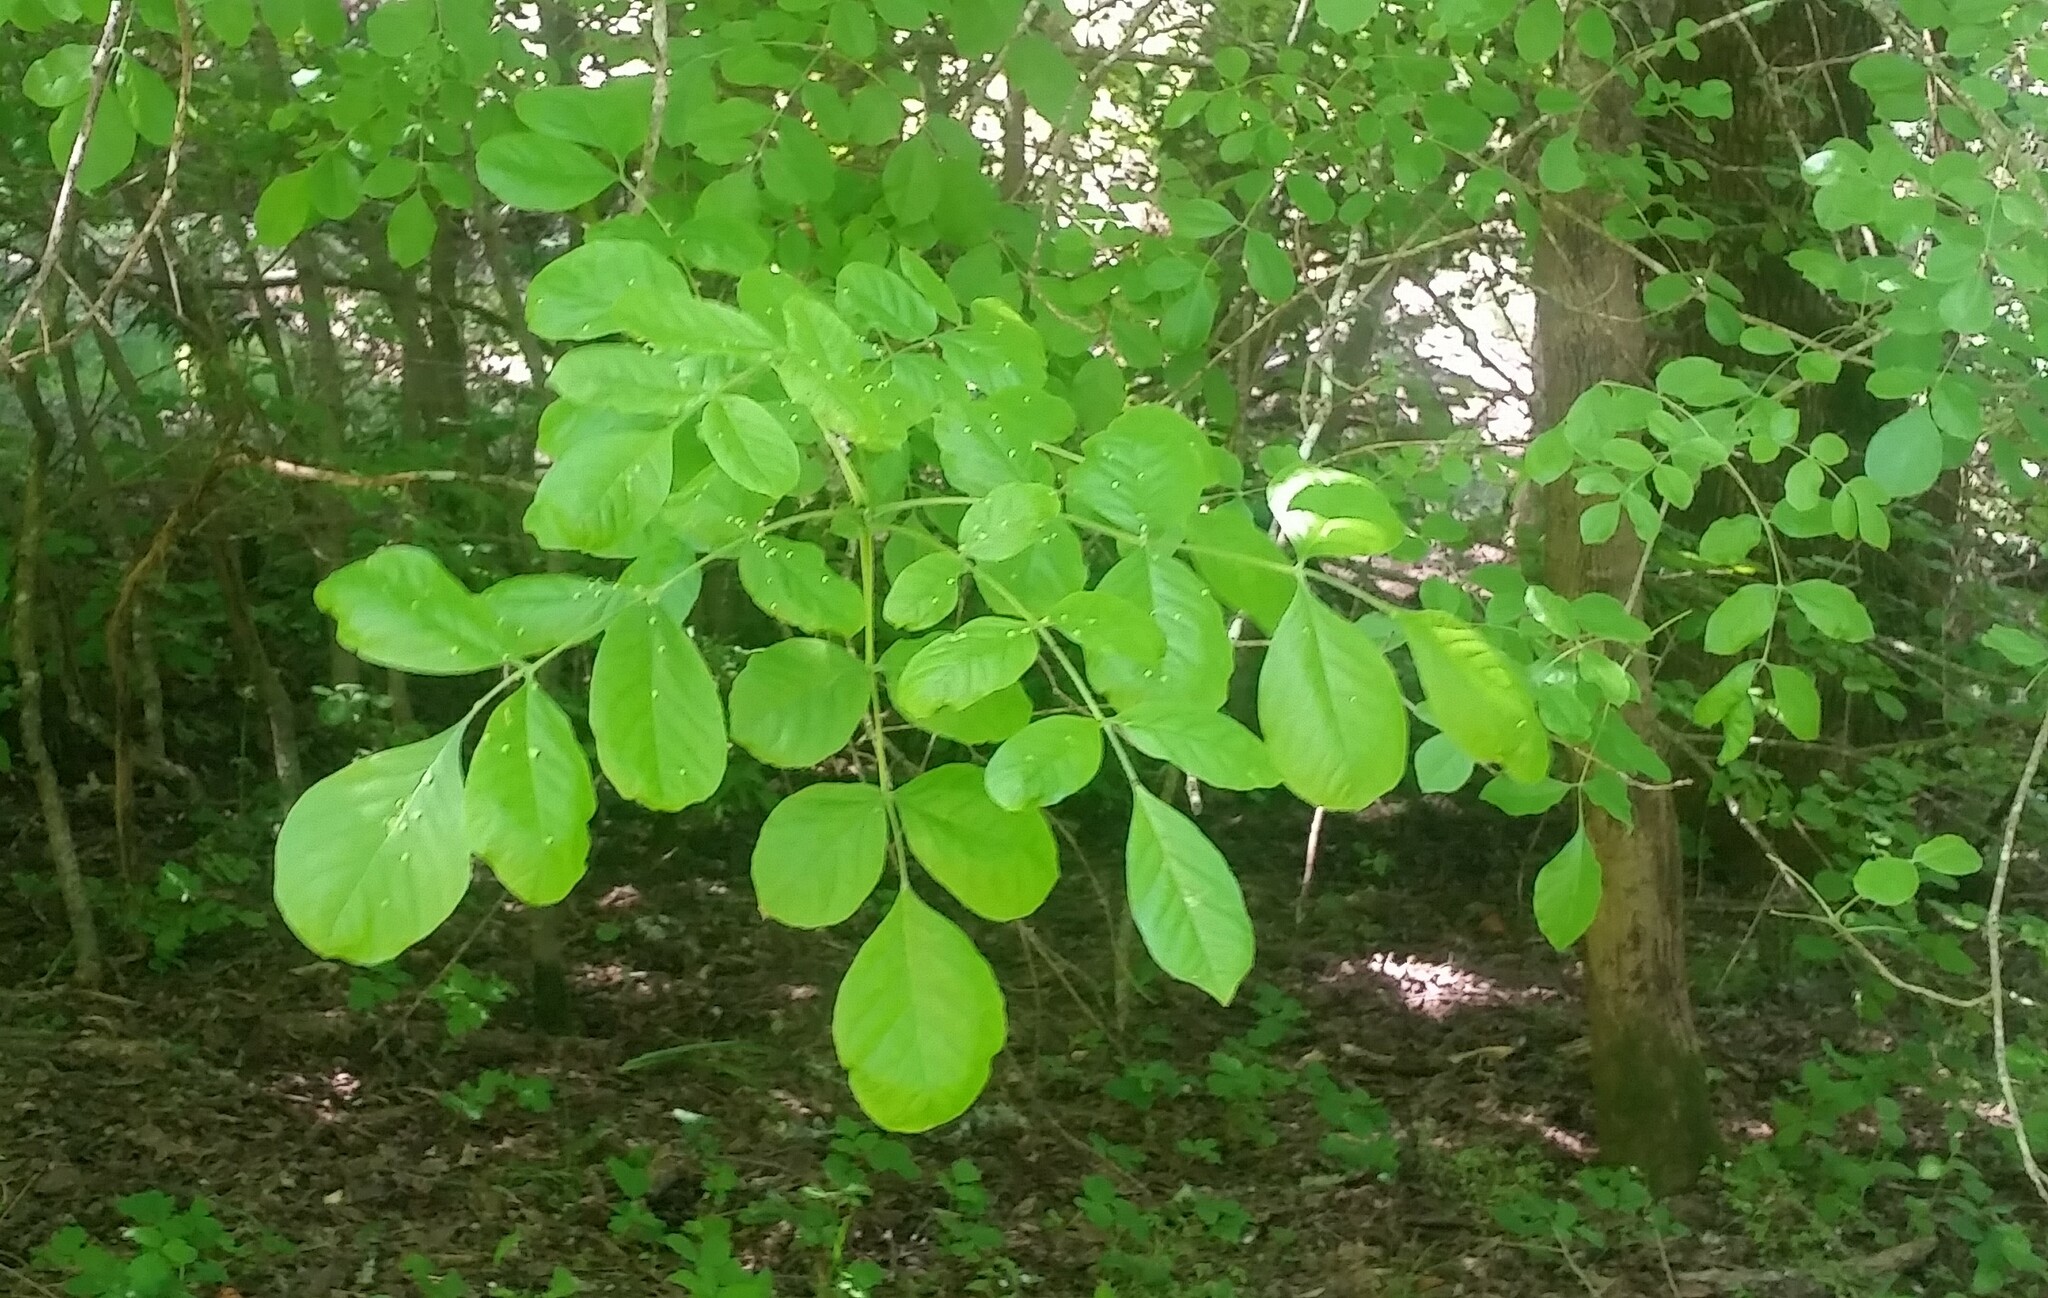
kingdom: Plantae
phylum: Tracheophyta
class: Magnoliopsida
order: Lamiales
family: Oleaceae
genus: Fraxinus
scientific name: Fraxinus latifolia
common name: Oregon ash
